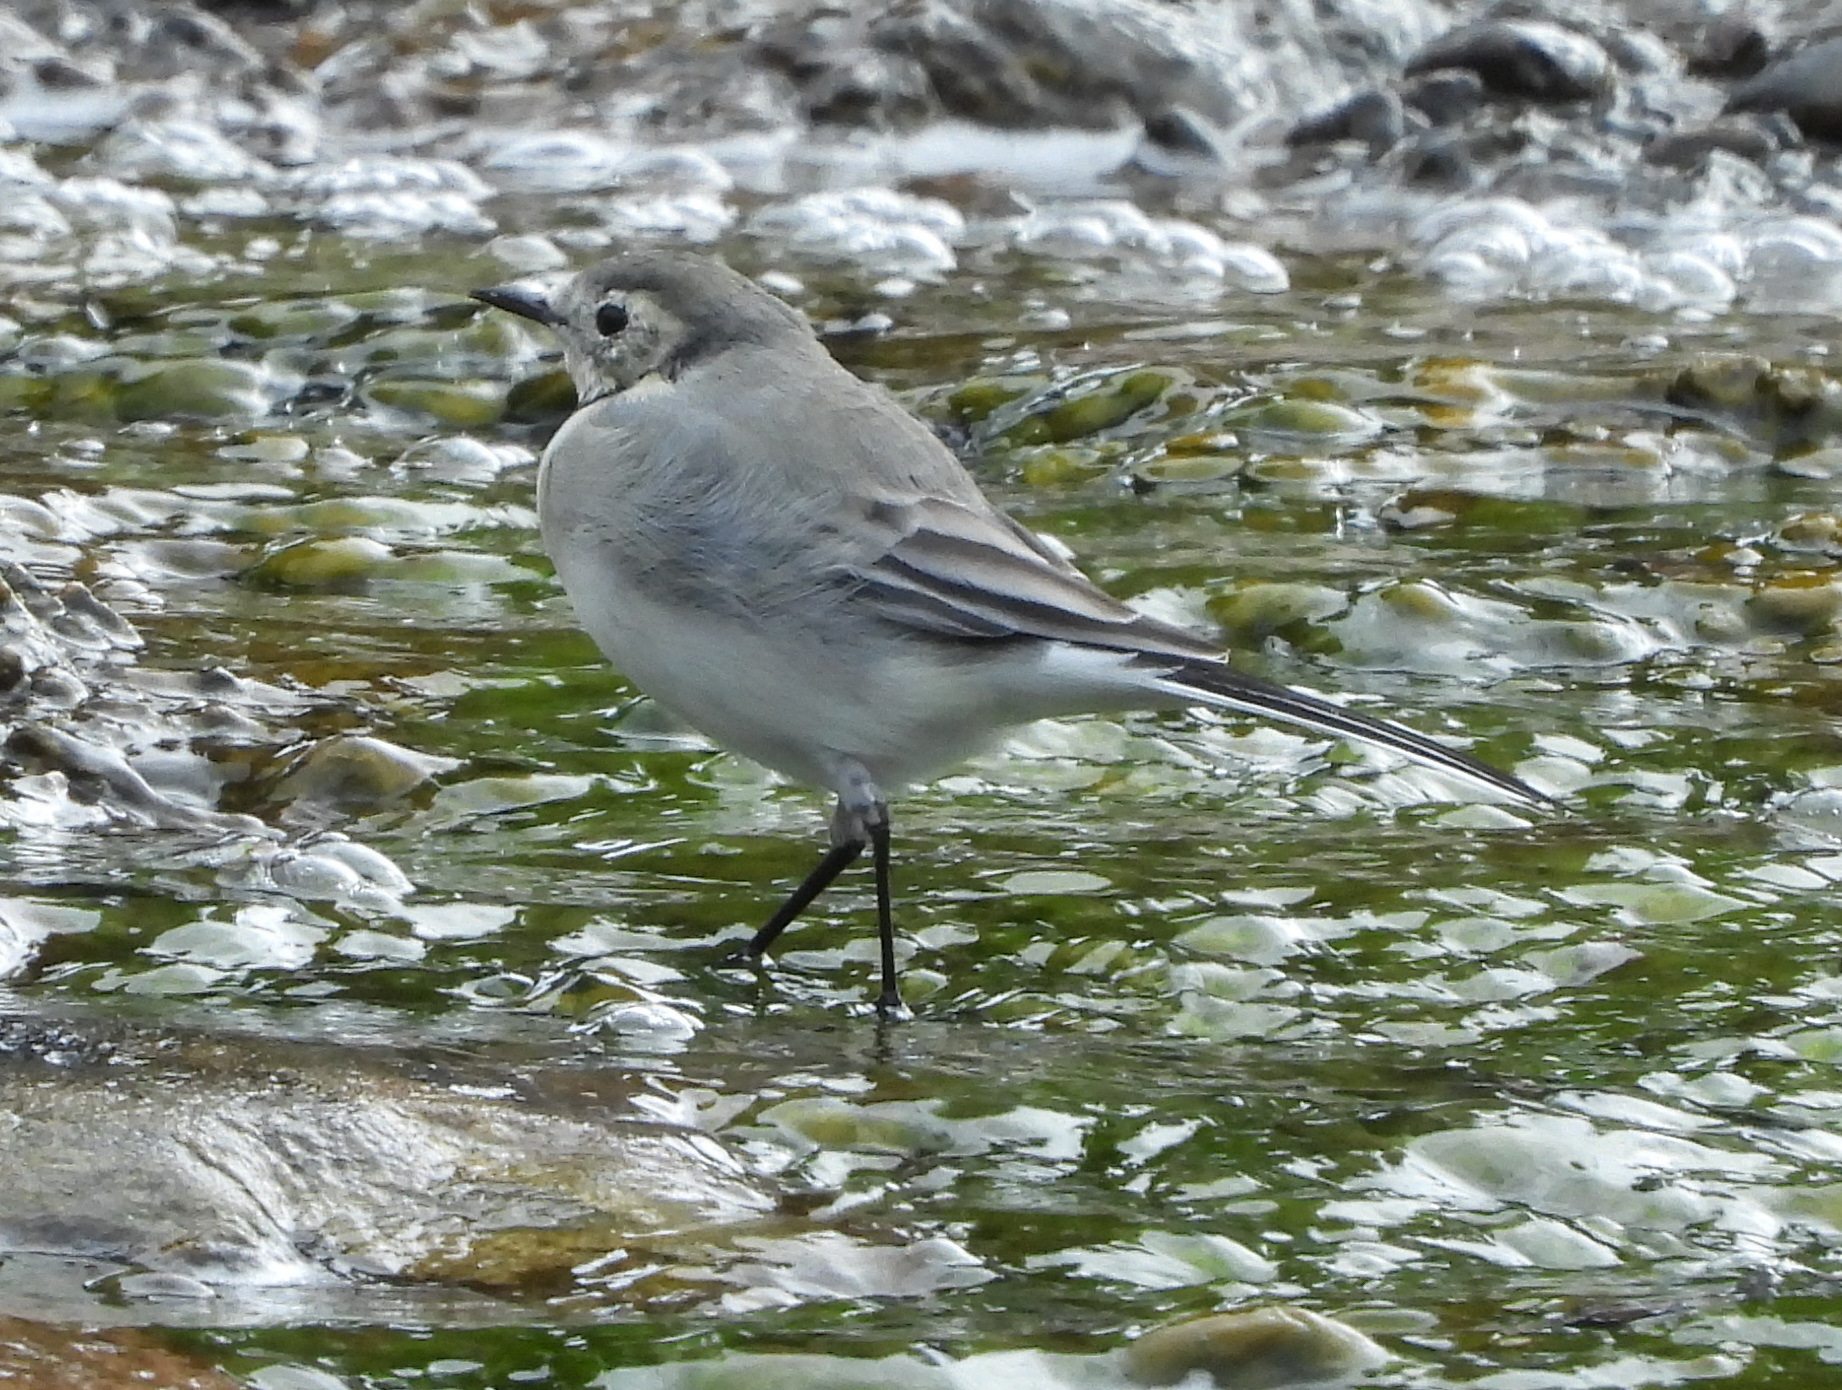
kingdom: Animalia
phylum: Chordata
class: Aves
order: Passeriformes
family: Motacillidae
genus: Motacilla
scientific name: Motacilla alba
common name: White wagtail
